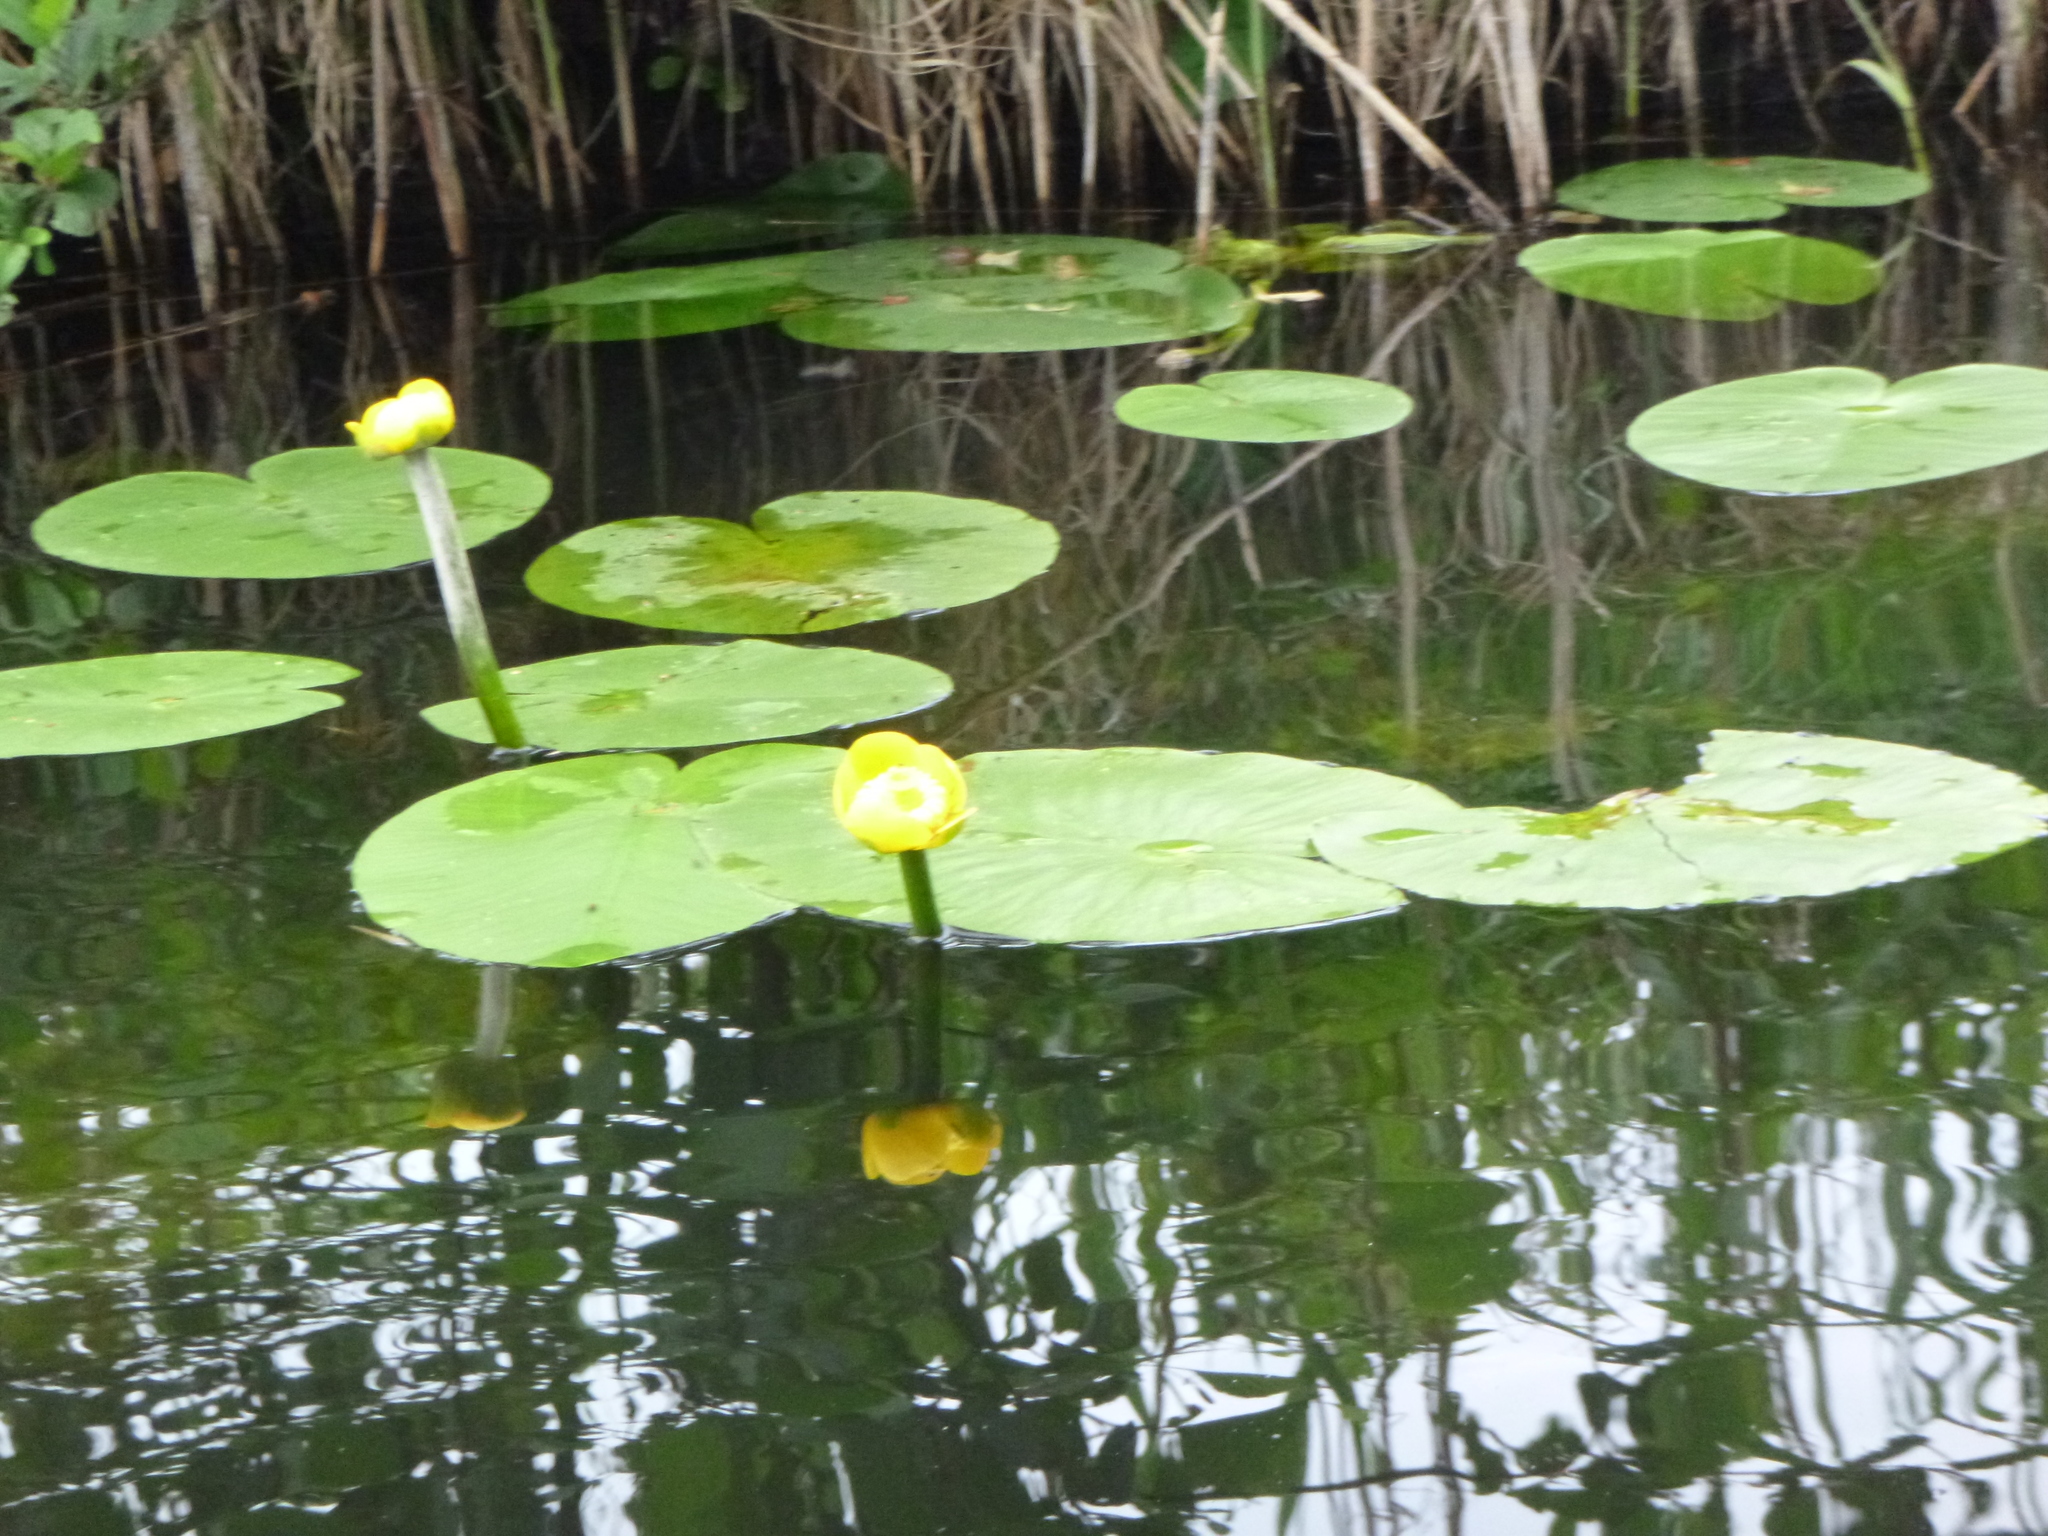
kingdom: Plantae
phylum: Tracheophyta
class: Magnoliopsida
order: Nymphaeales
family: Nymphaeaceae
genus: Nuphar
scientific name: Nuphar lutea
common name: Yellow water-lily
